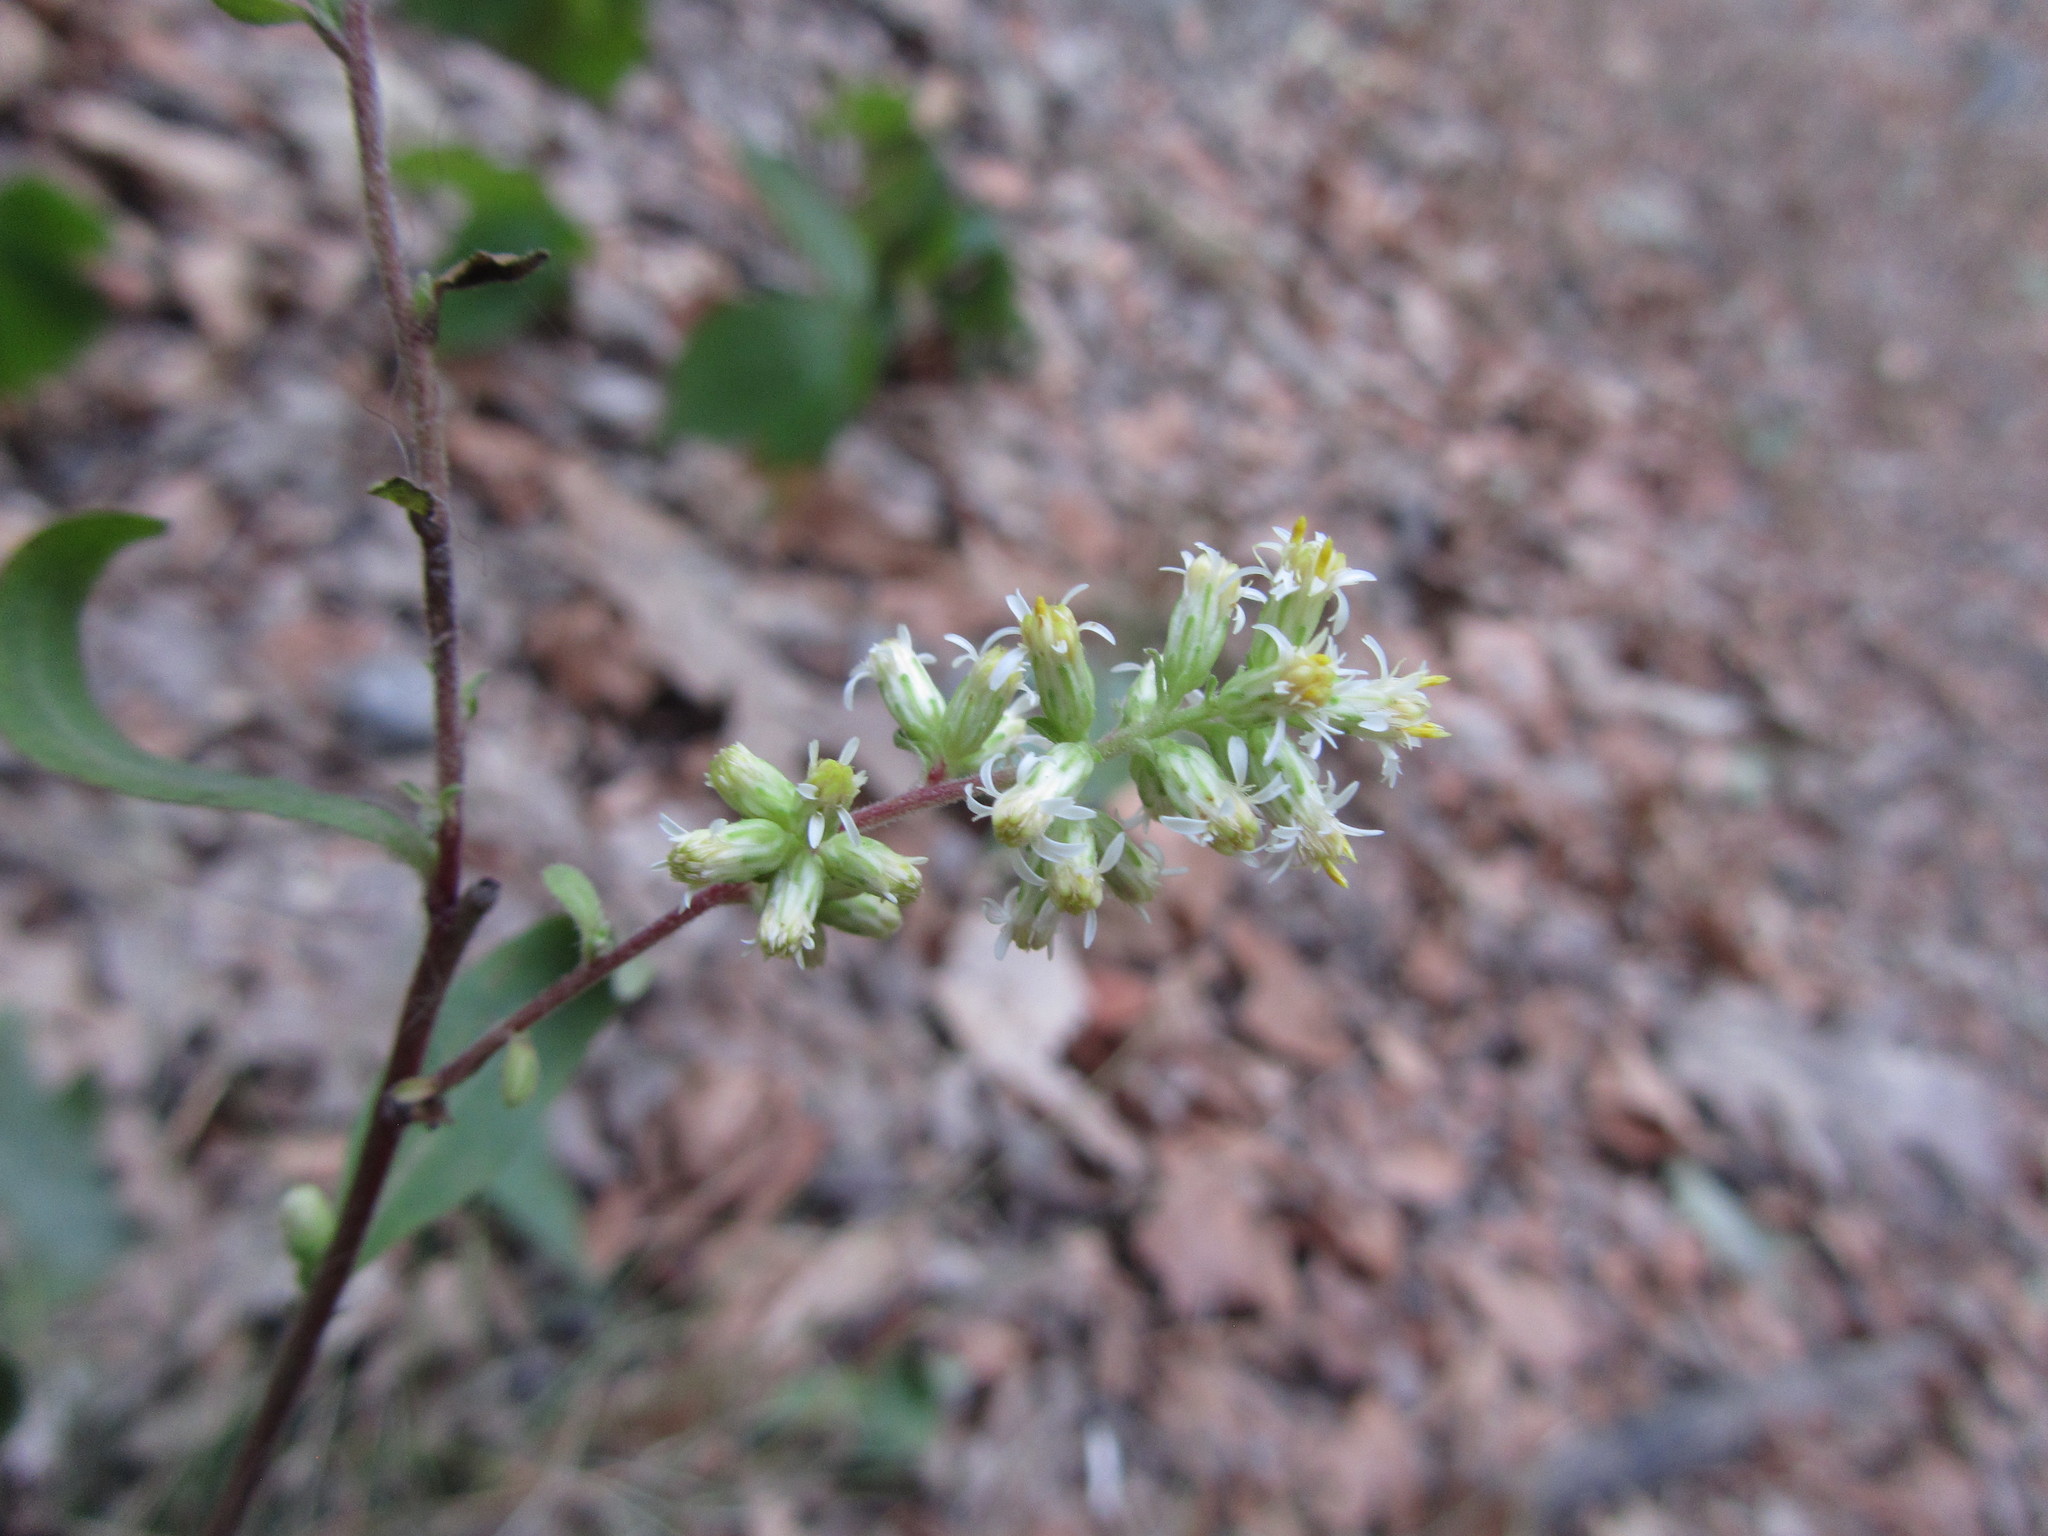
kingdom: Plantae
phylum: Tracheophyta
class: Magnoliopsida
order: Asterales
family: Asteraceae
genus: Solidago
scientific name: Solidago bicolor
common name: Silverrod
